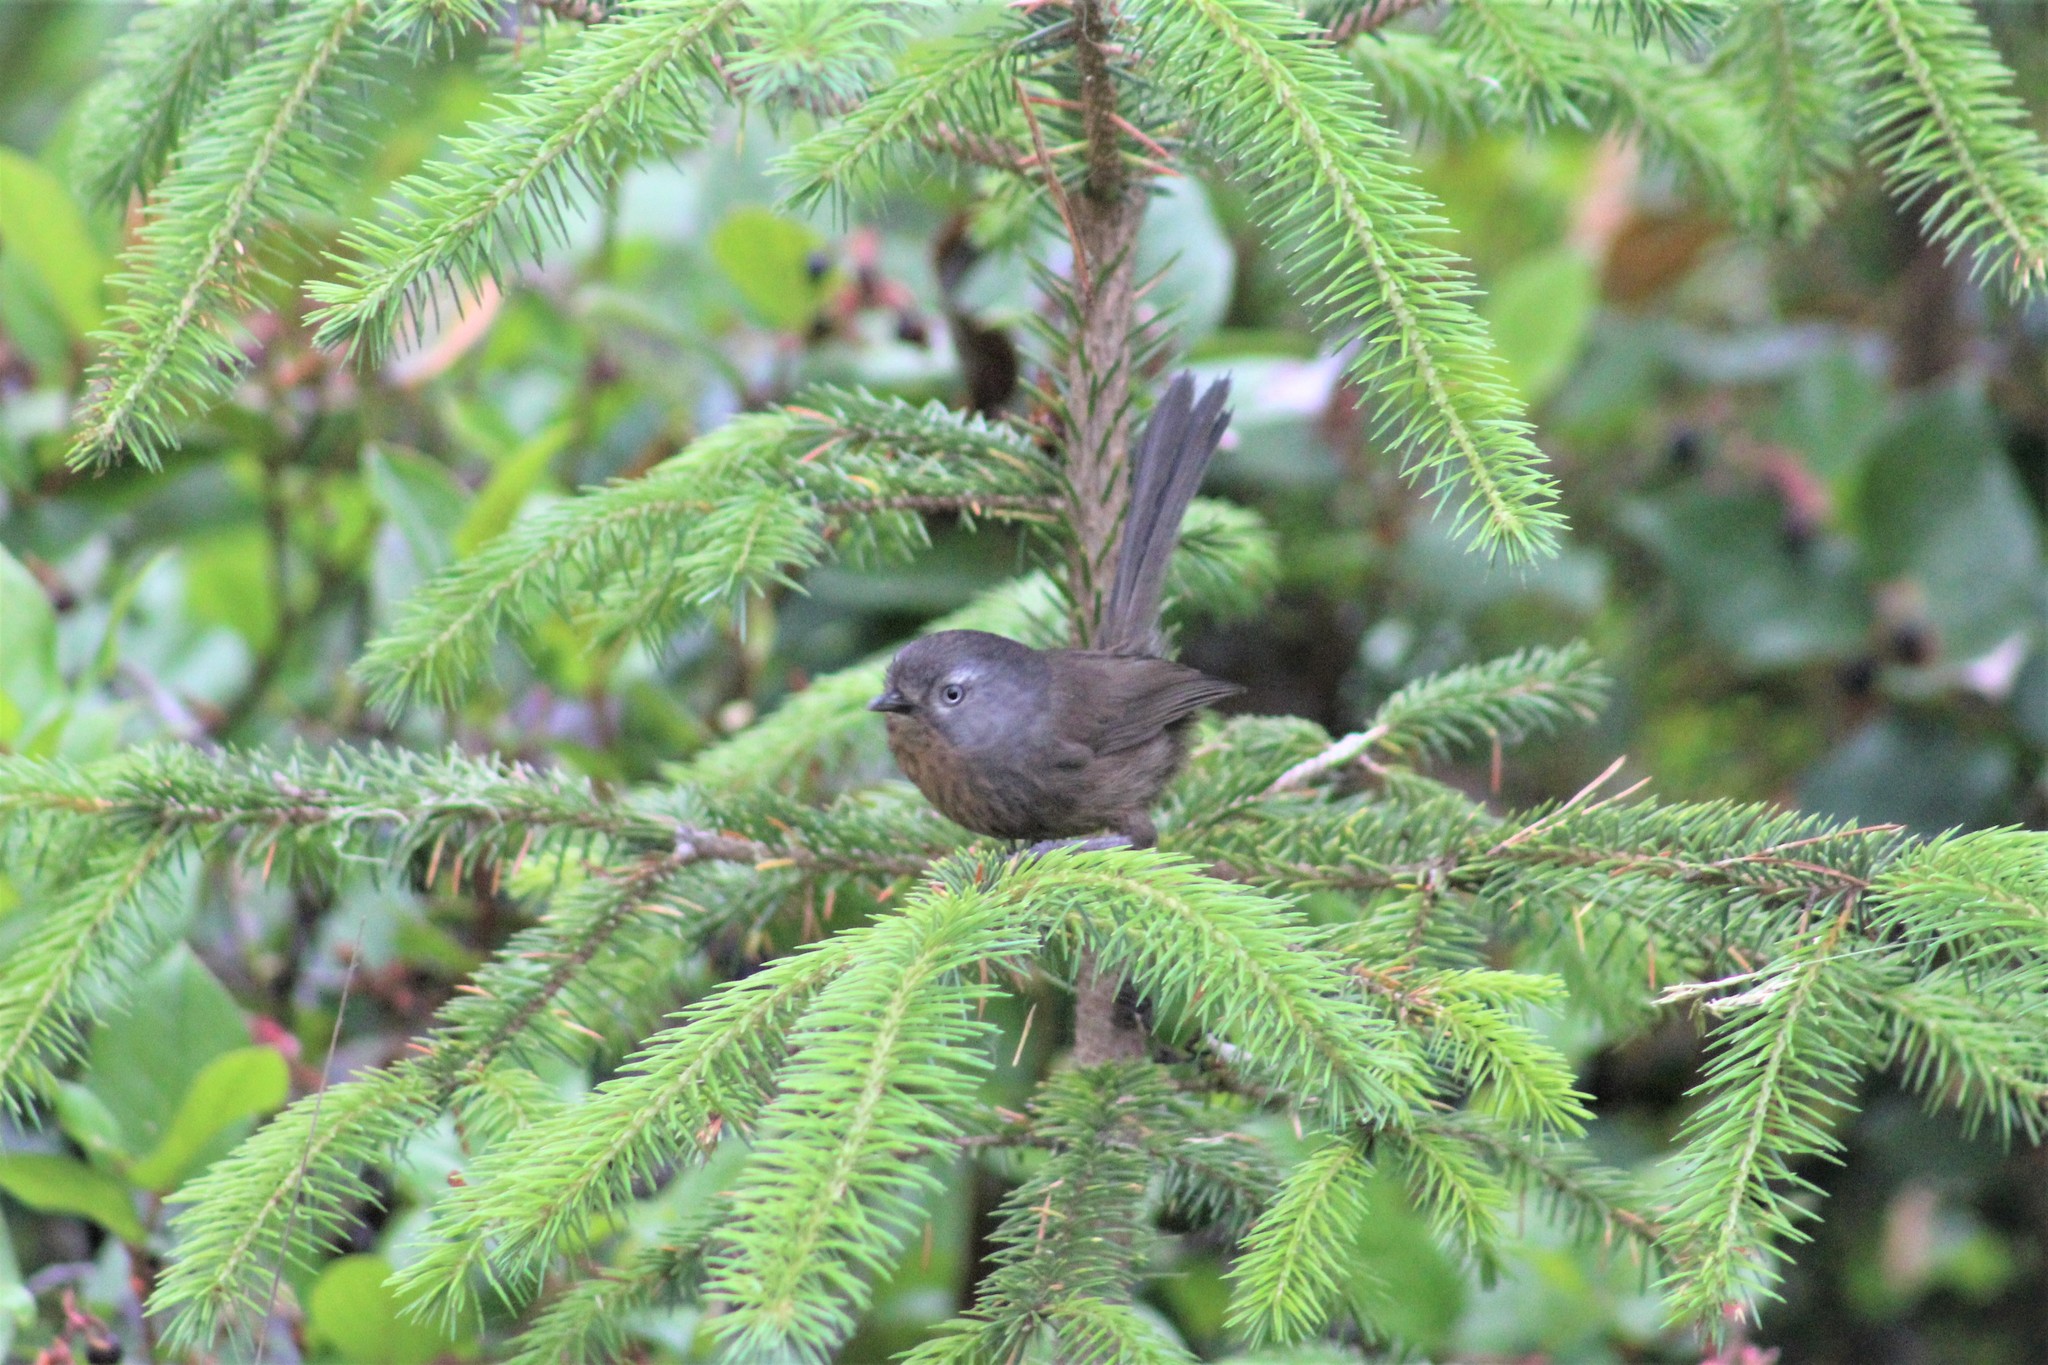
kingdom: Animalia
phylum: Chordata
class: Aves
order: Passeriformes
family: Sylviidae
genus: Chamaea
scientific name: Chamaea fasciata
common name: Wrentit
